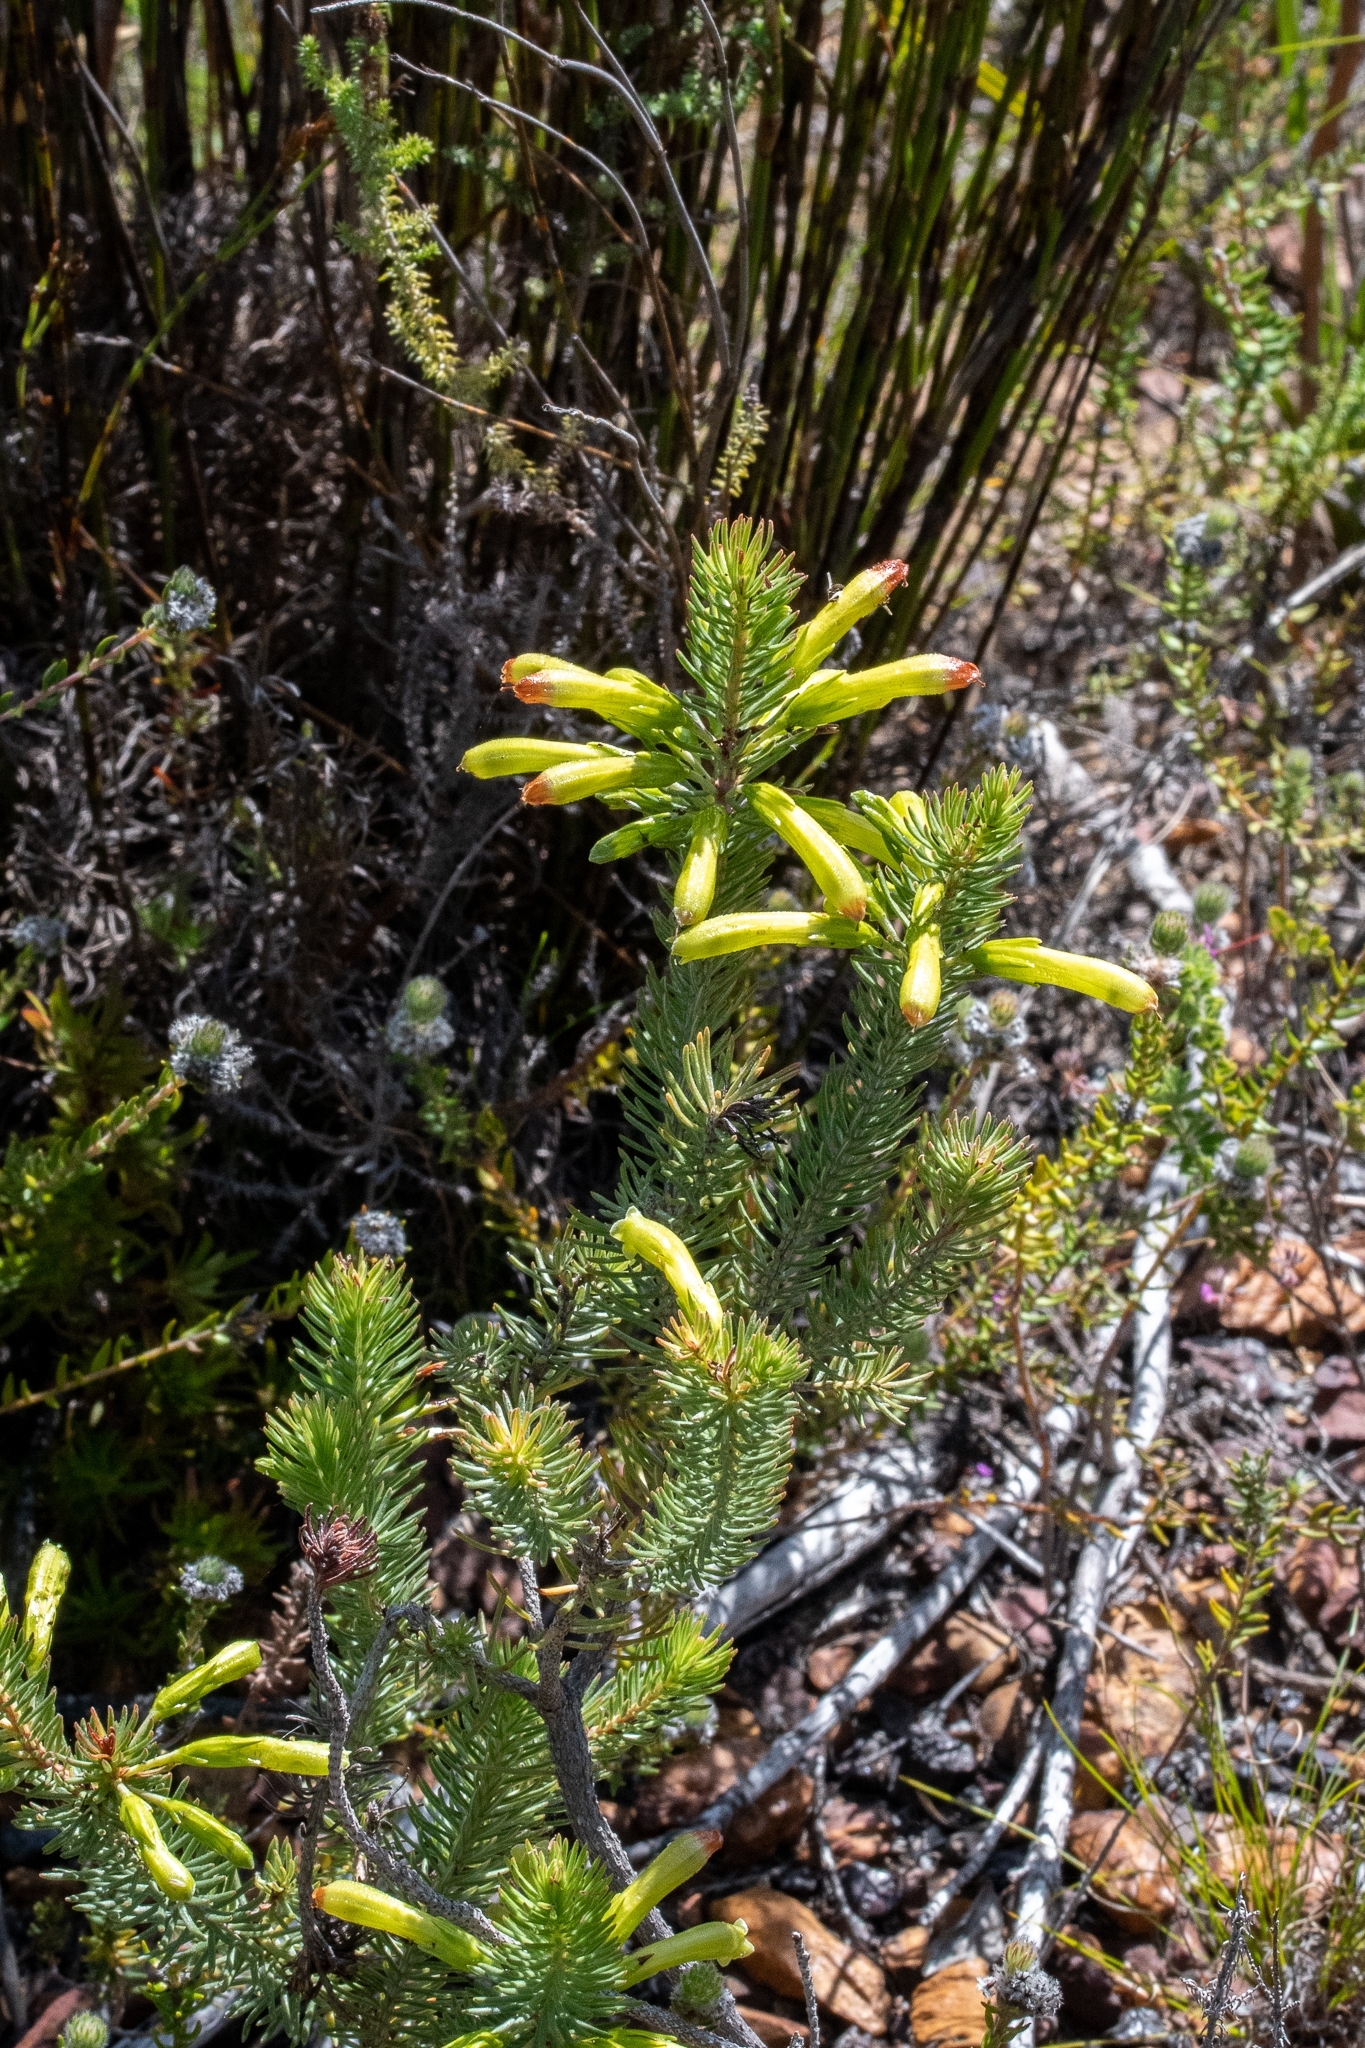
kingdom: Plantae
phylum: Tracheophyta
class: Magnoliopsida
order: Ericales
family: Ericaceae
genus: Erica
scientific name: Erica thomae
